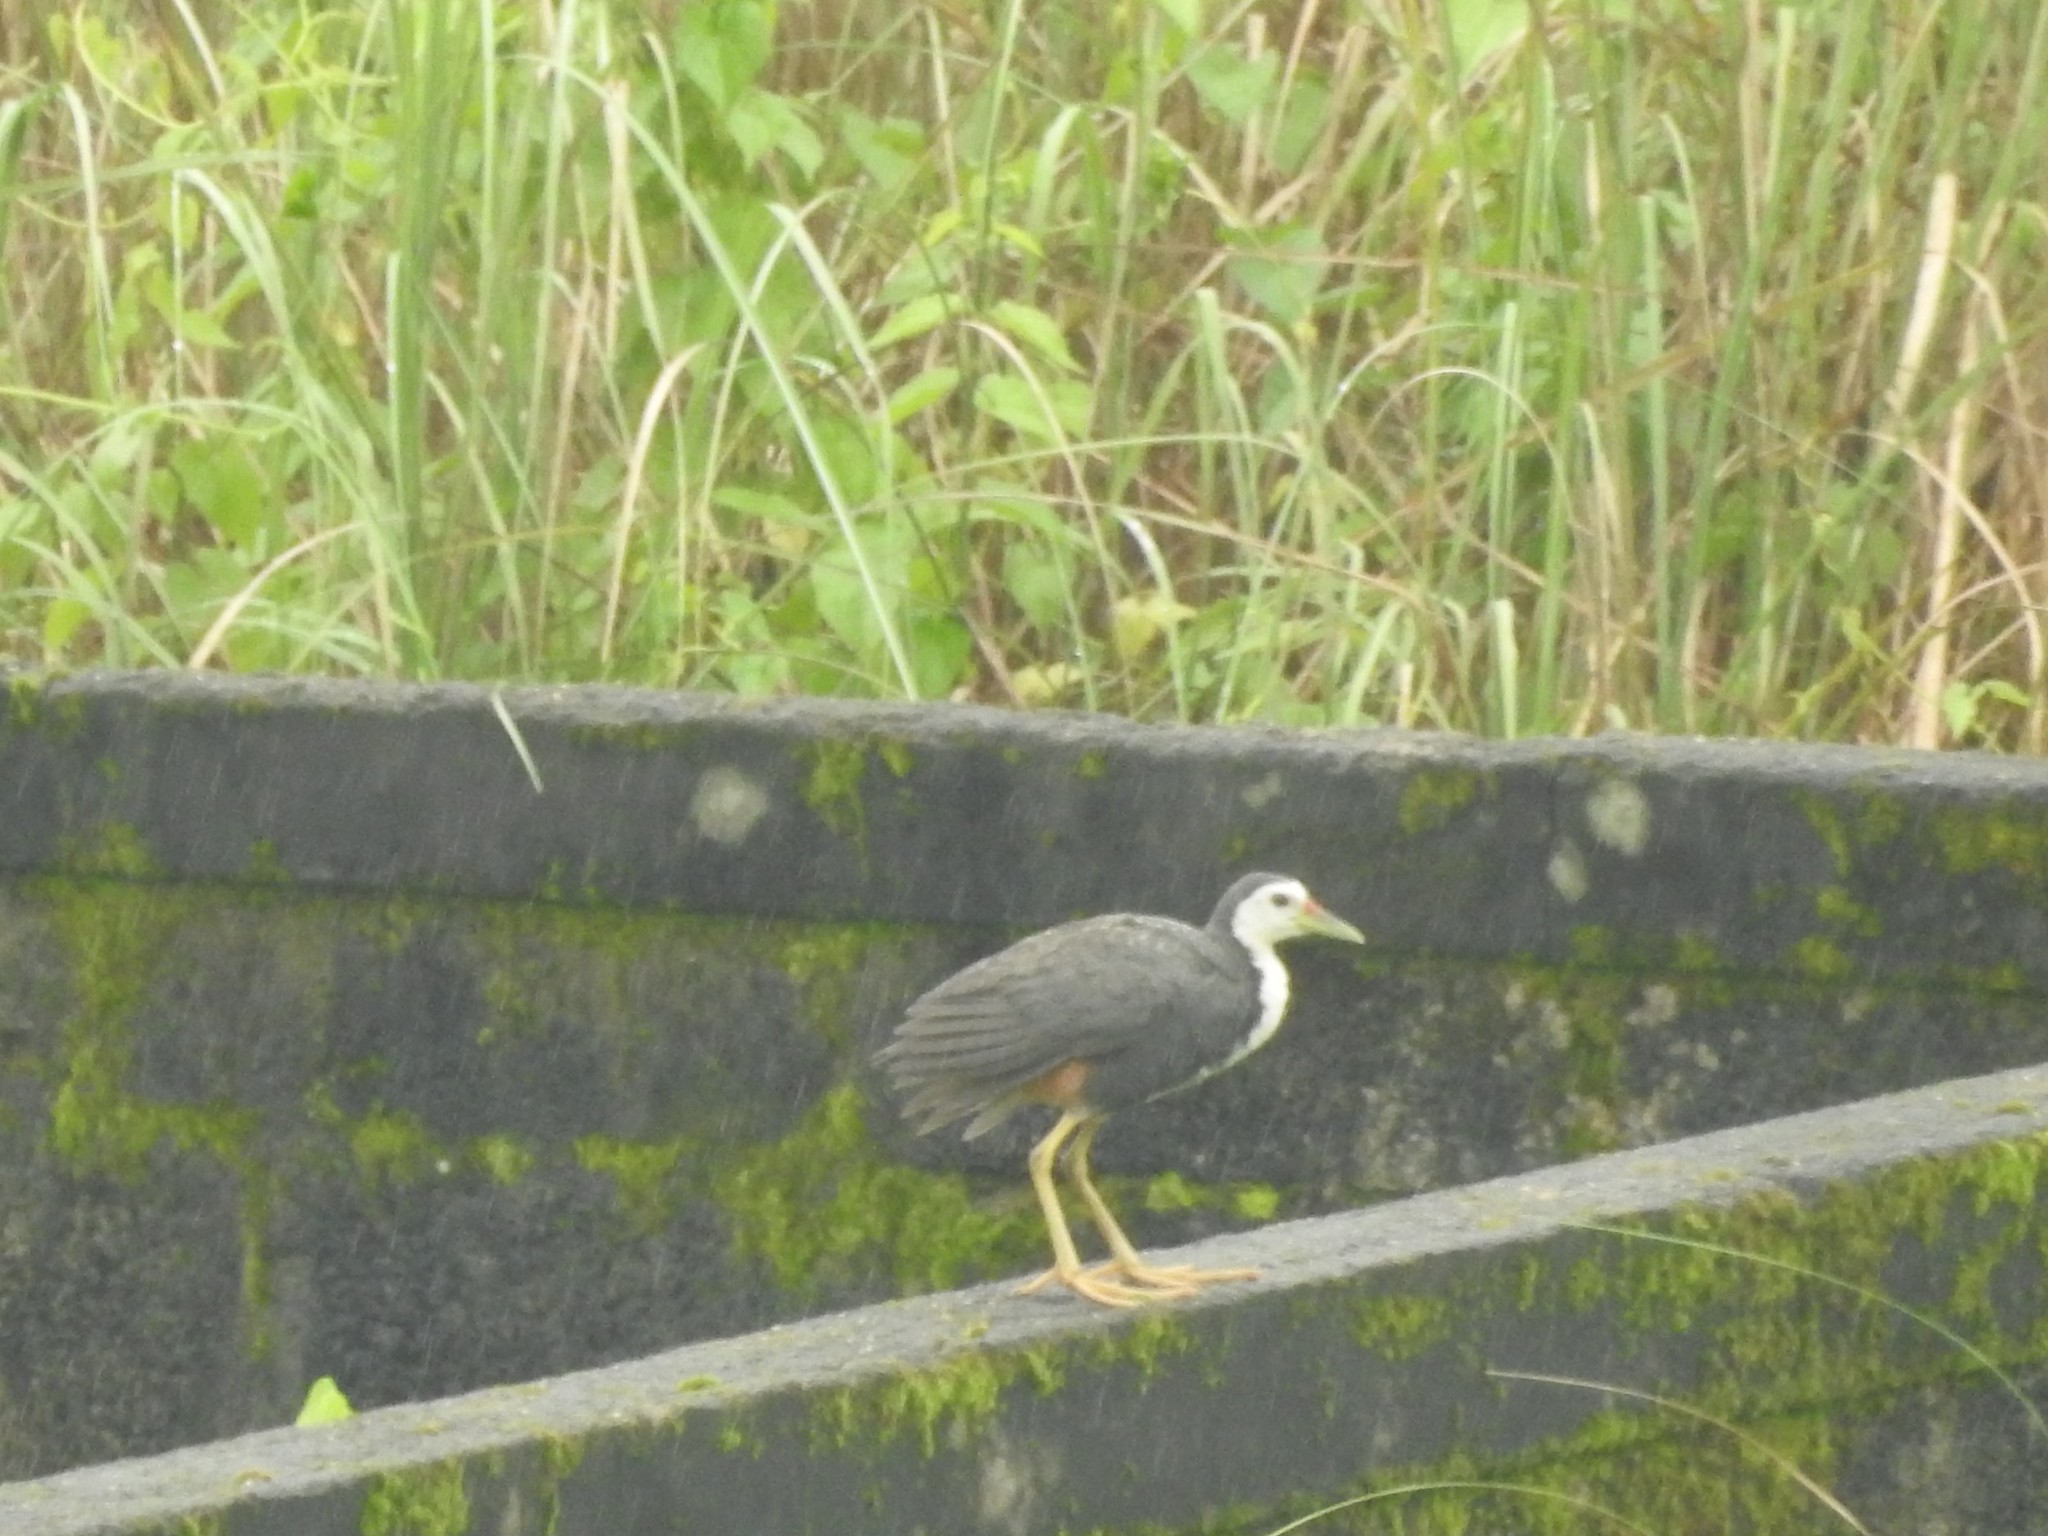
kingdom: Animalia
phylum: Chordata
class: Aves
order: Gruiformes
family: Rallidae
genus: Amaurornis
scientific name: Amaurornis phoenicurus
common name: White-breasted waterhen
